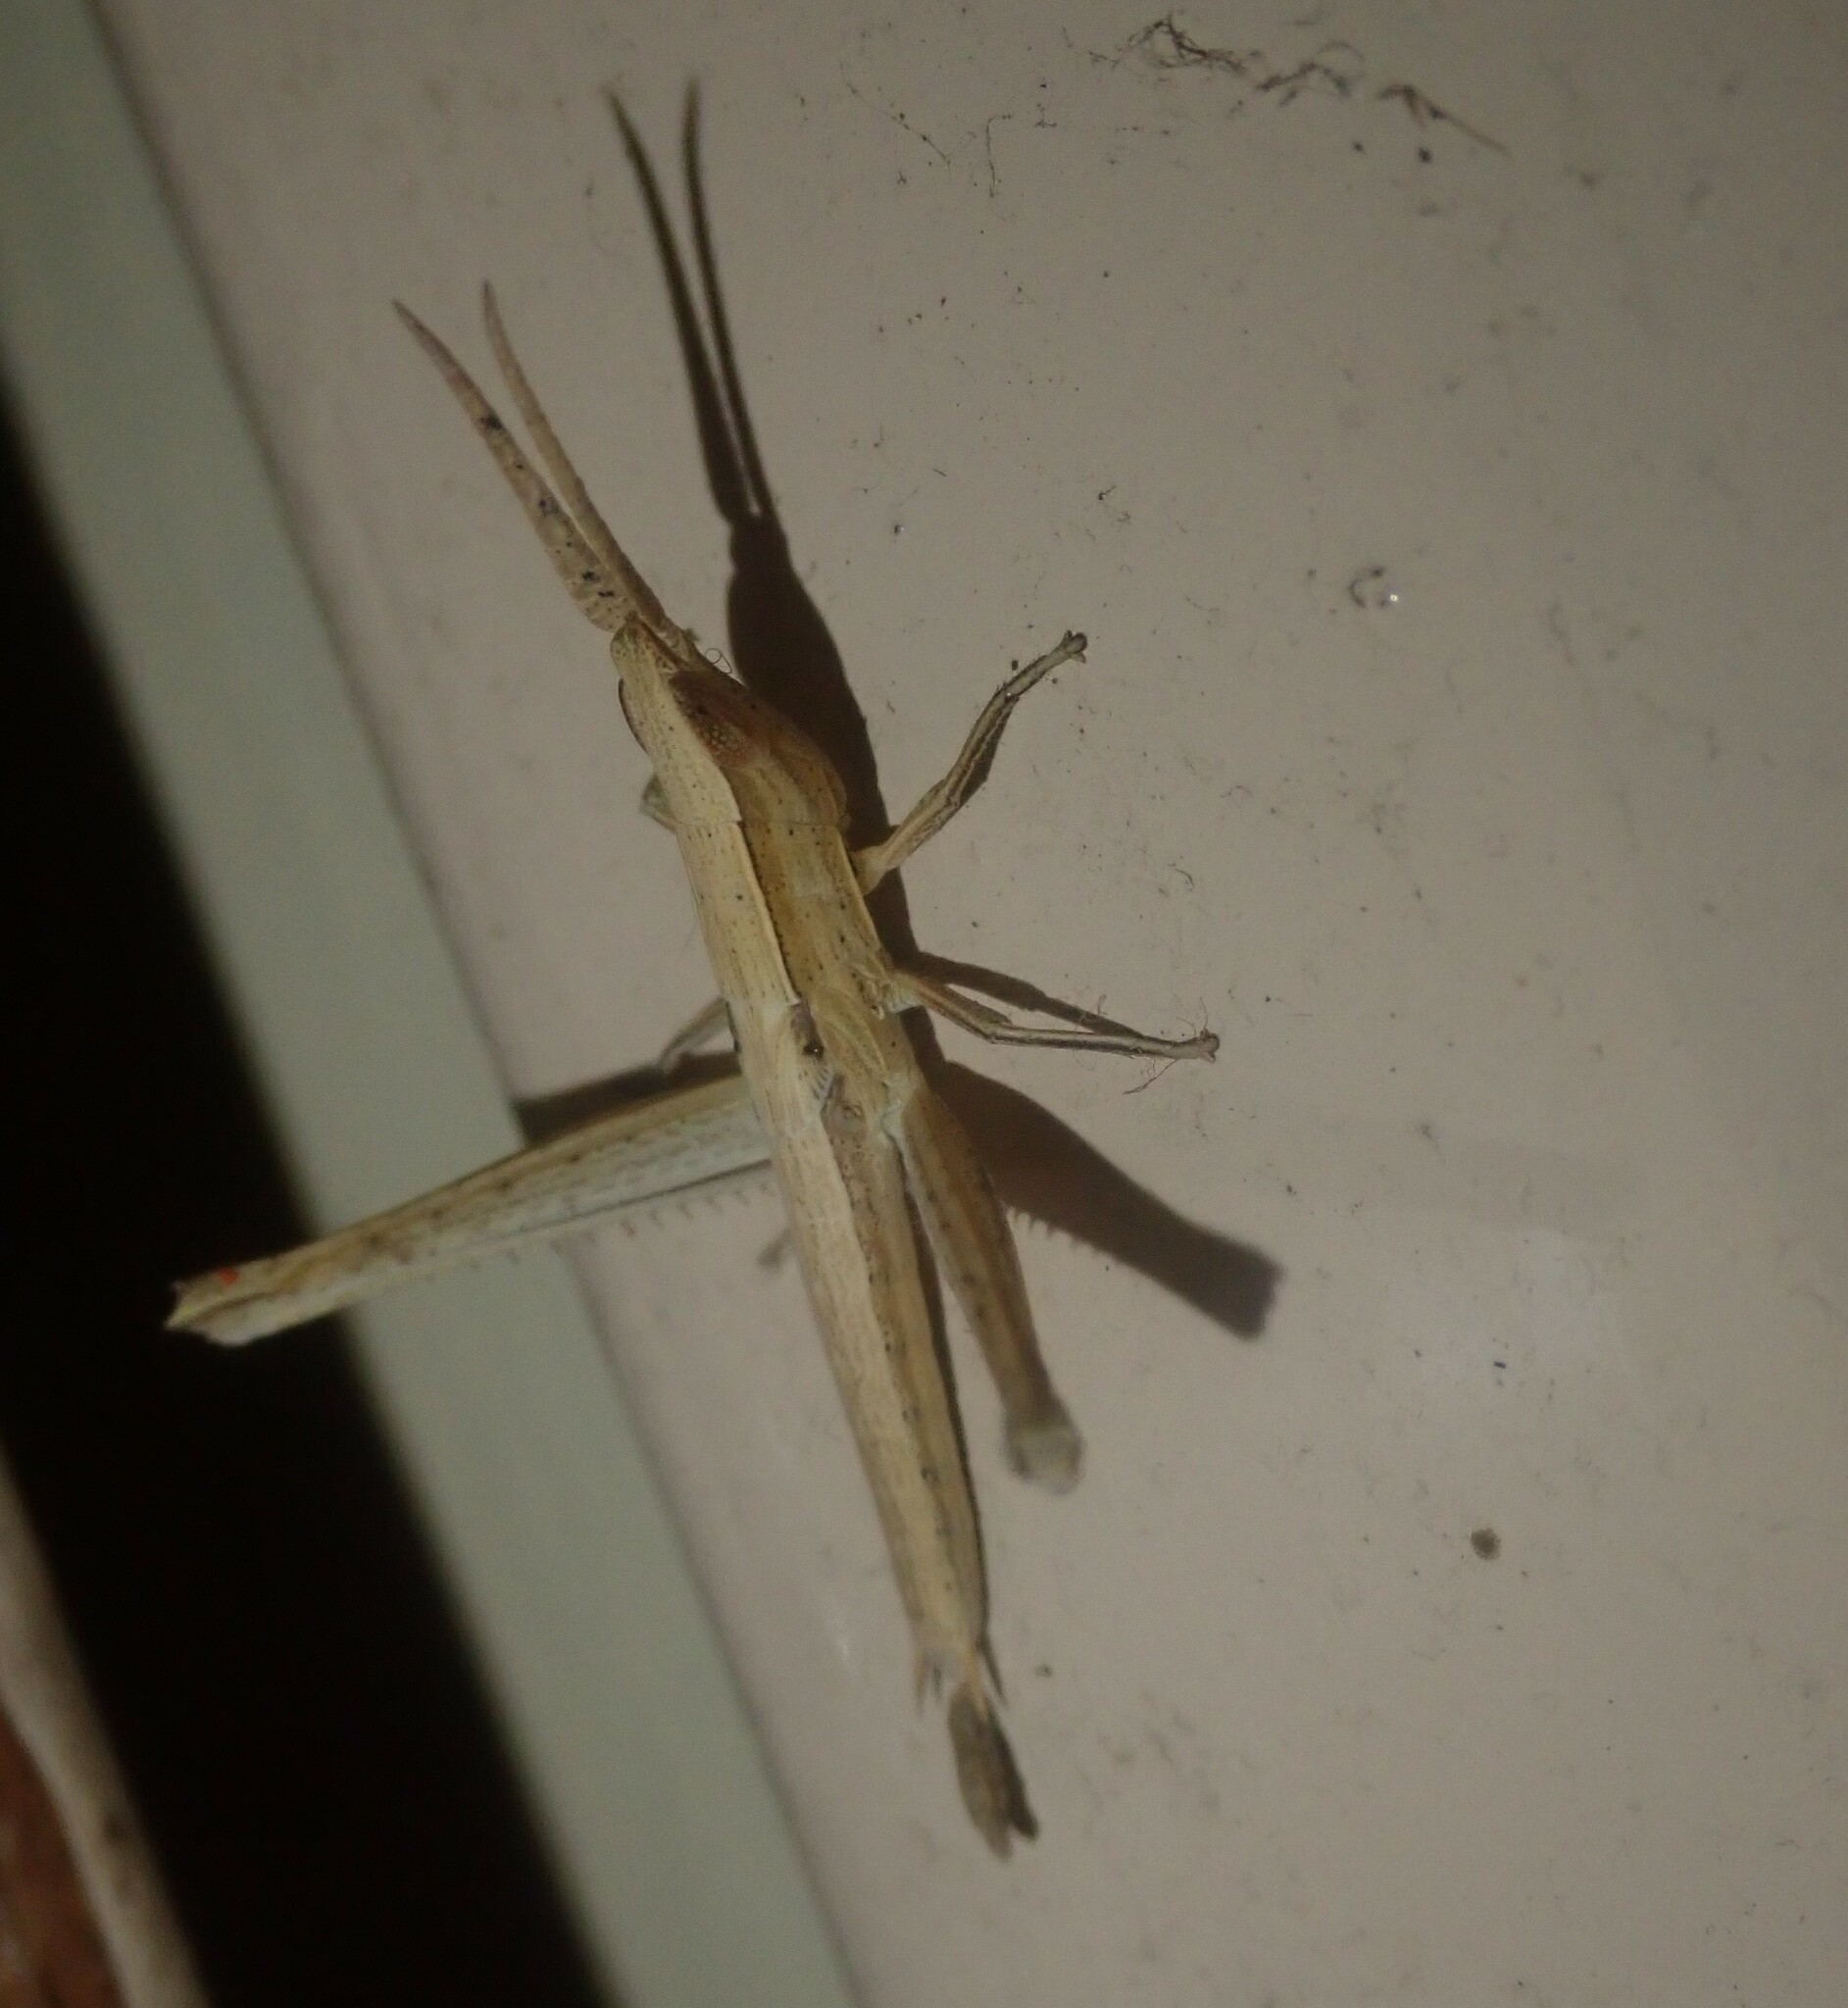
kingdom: Animalia
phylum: Arthropoda
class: Insecta
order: Orthoptera
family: Acrididae
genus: Duronia
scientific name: Duronia chloronota
